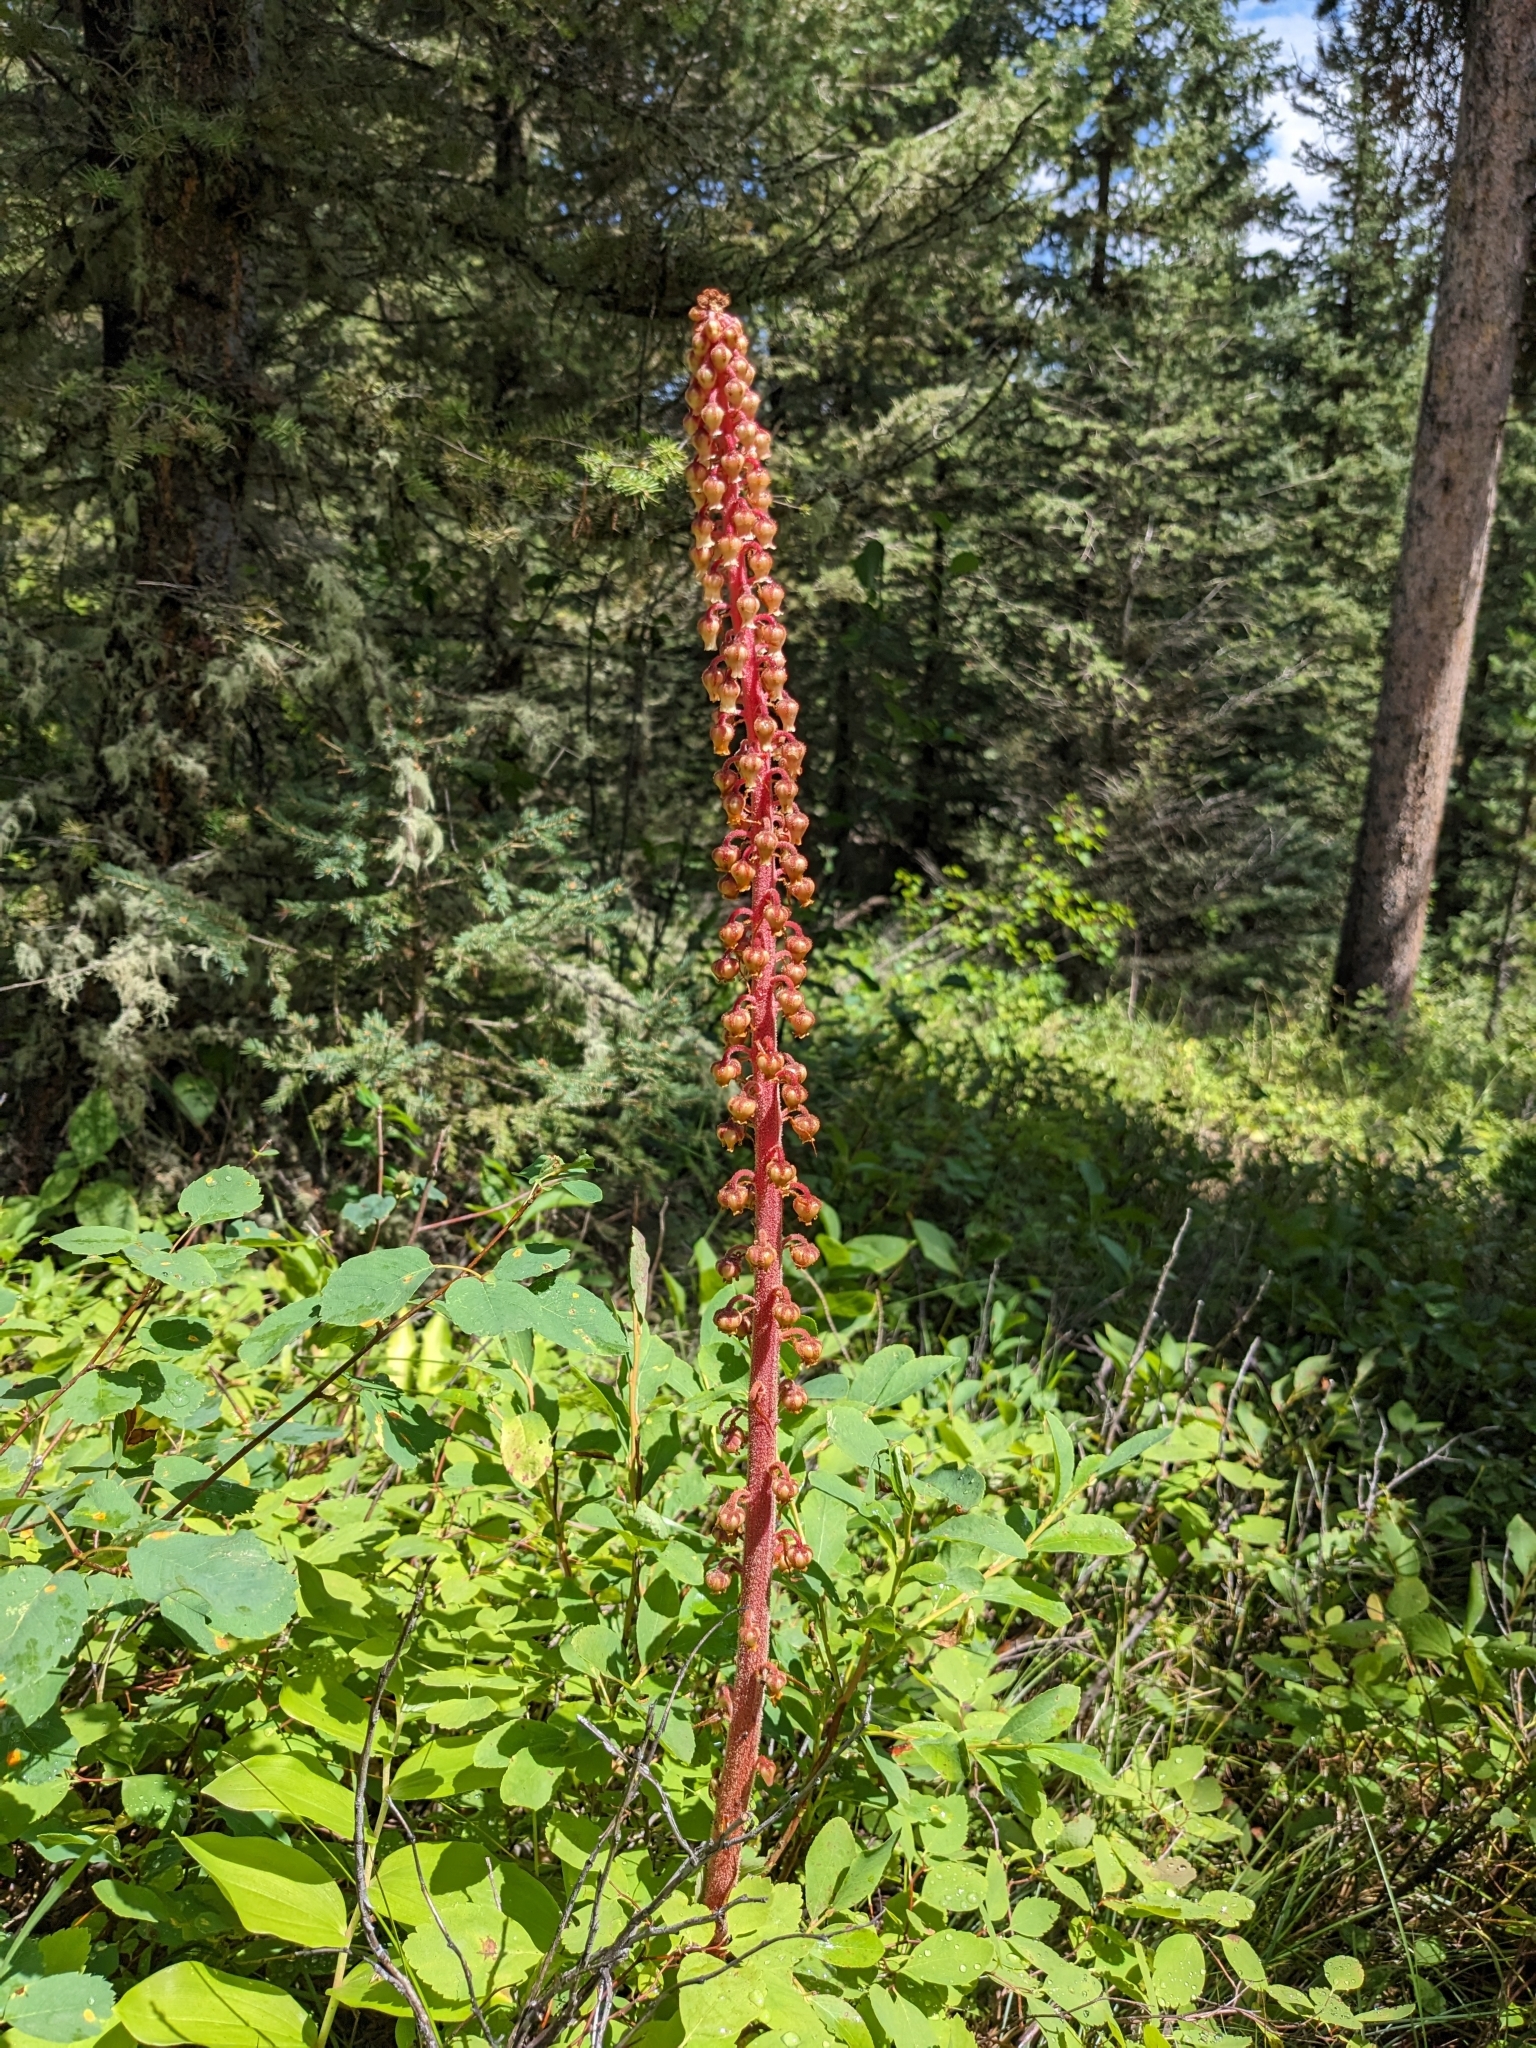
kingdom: Plantae
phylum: Tracheophyta
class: Magnoliopsida
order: Ericales
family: Ericaceae
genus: Pterospora
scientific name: Pterospora andromedea
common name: Giant bird's-nest
